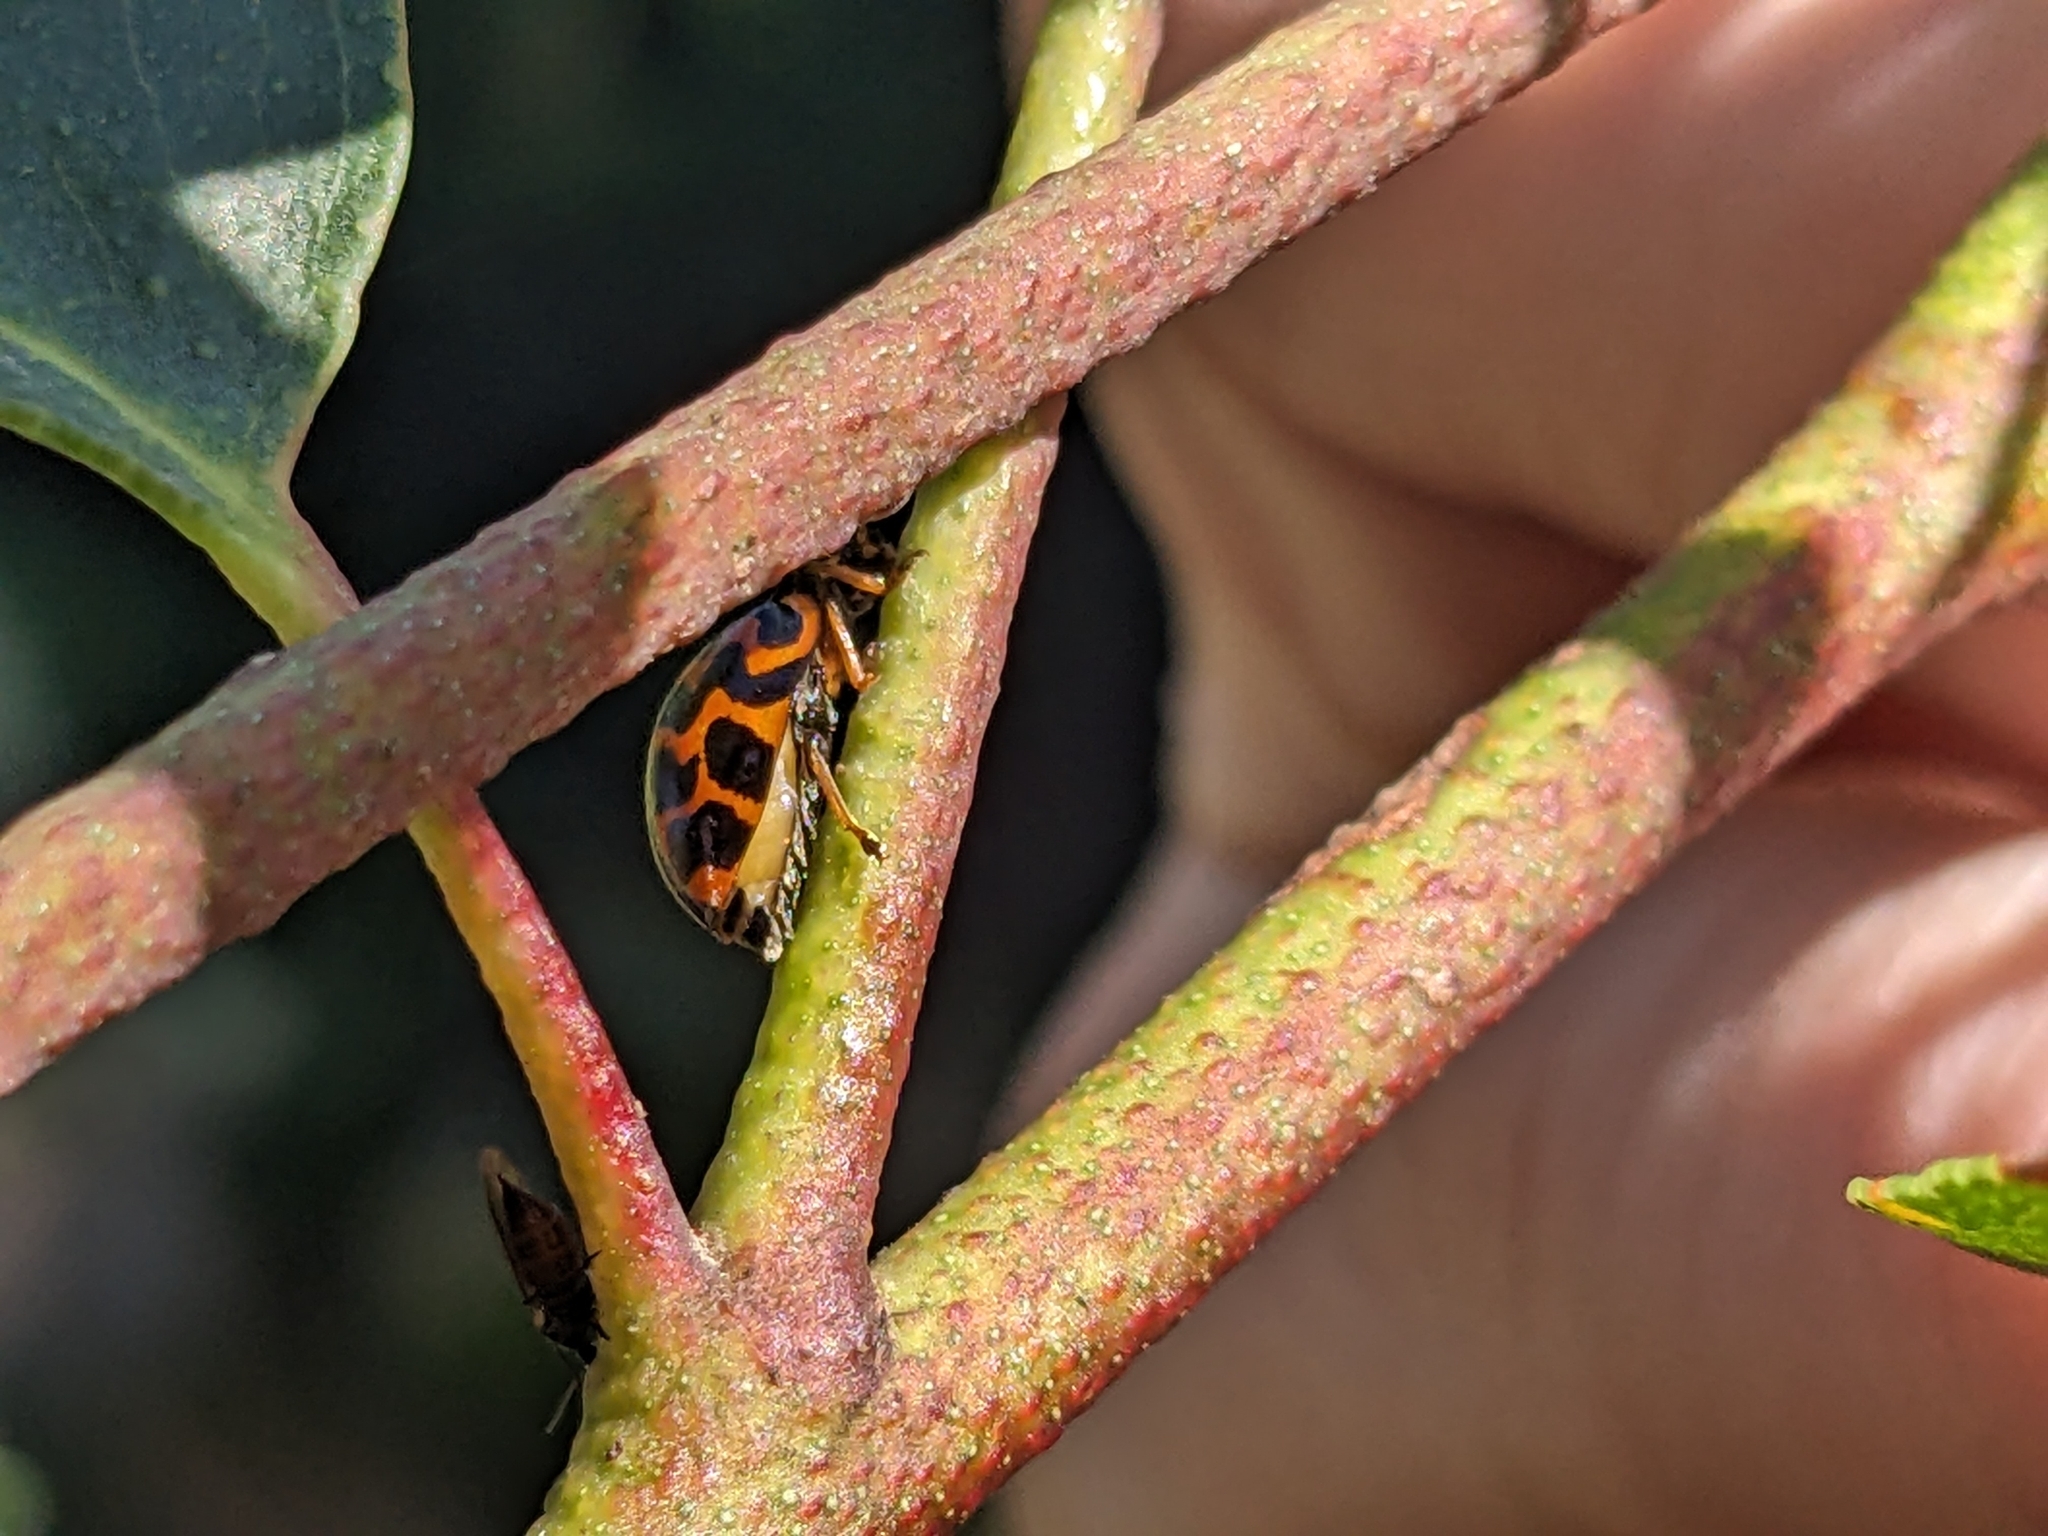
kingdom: Animalia
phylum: Arthropoda
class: Insecta
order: Coleoptera
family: Coccinellidae
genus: Cleobora
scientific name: Cleobora
